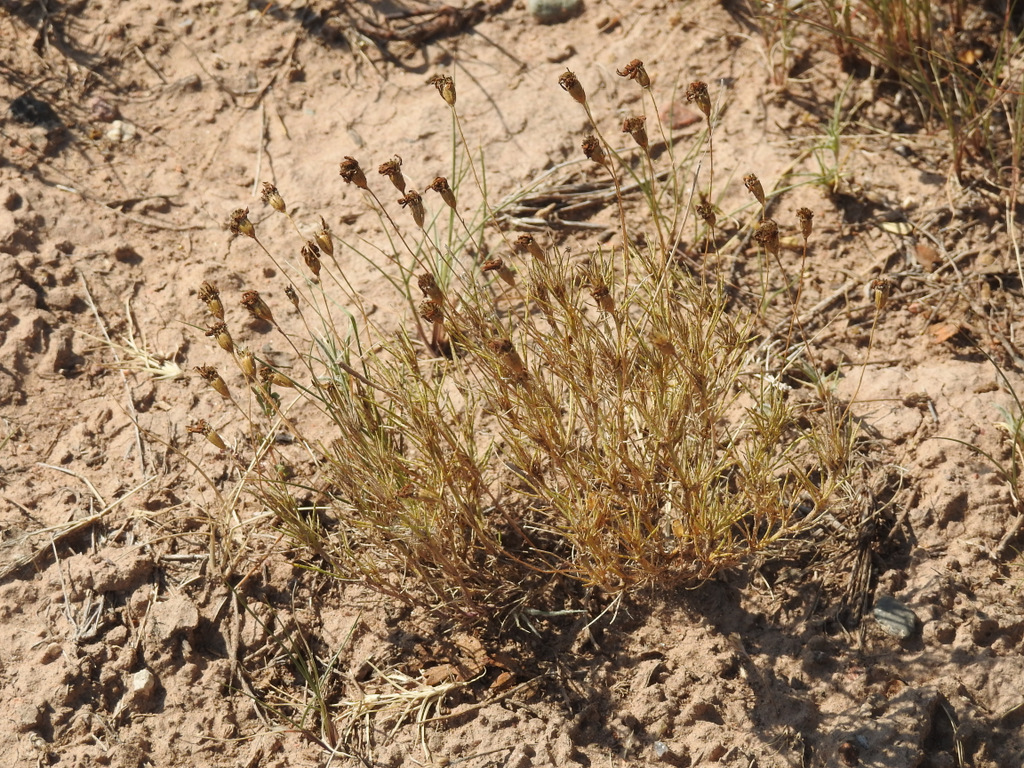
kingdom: Plantae
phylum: Tracheophyta
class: Magnoliopsida
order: Asterales
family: Asteraceae
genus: Thymophylla
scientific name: Thymophylla pentachaeta
